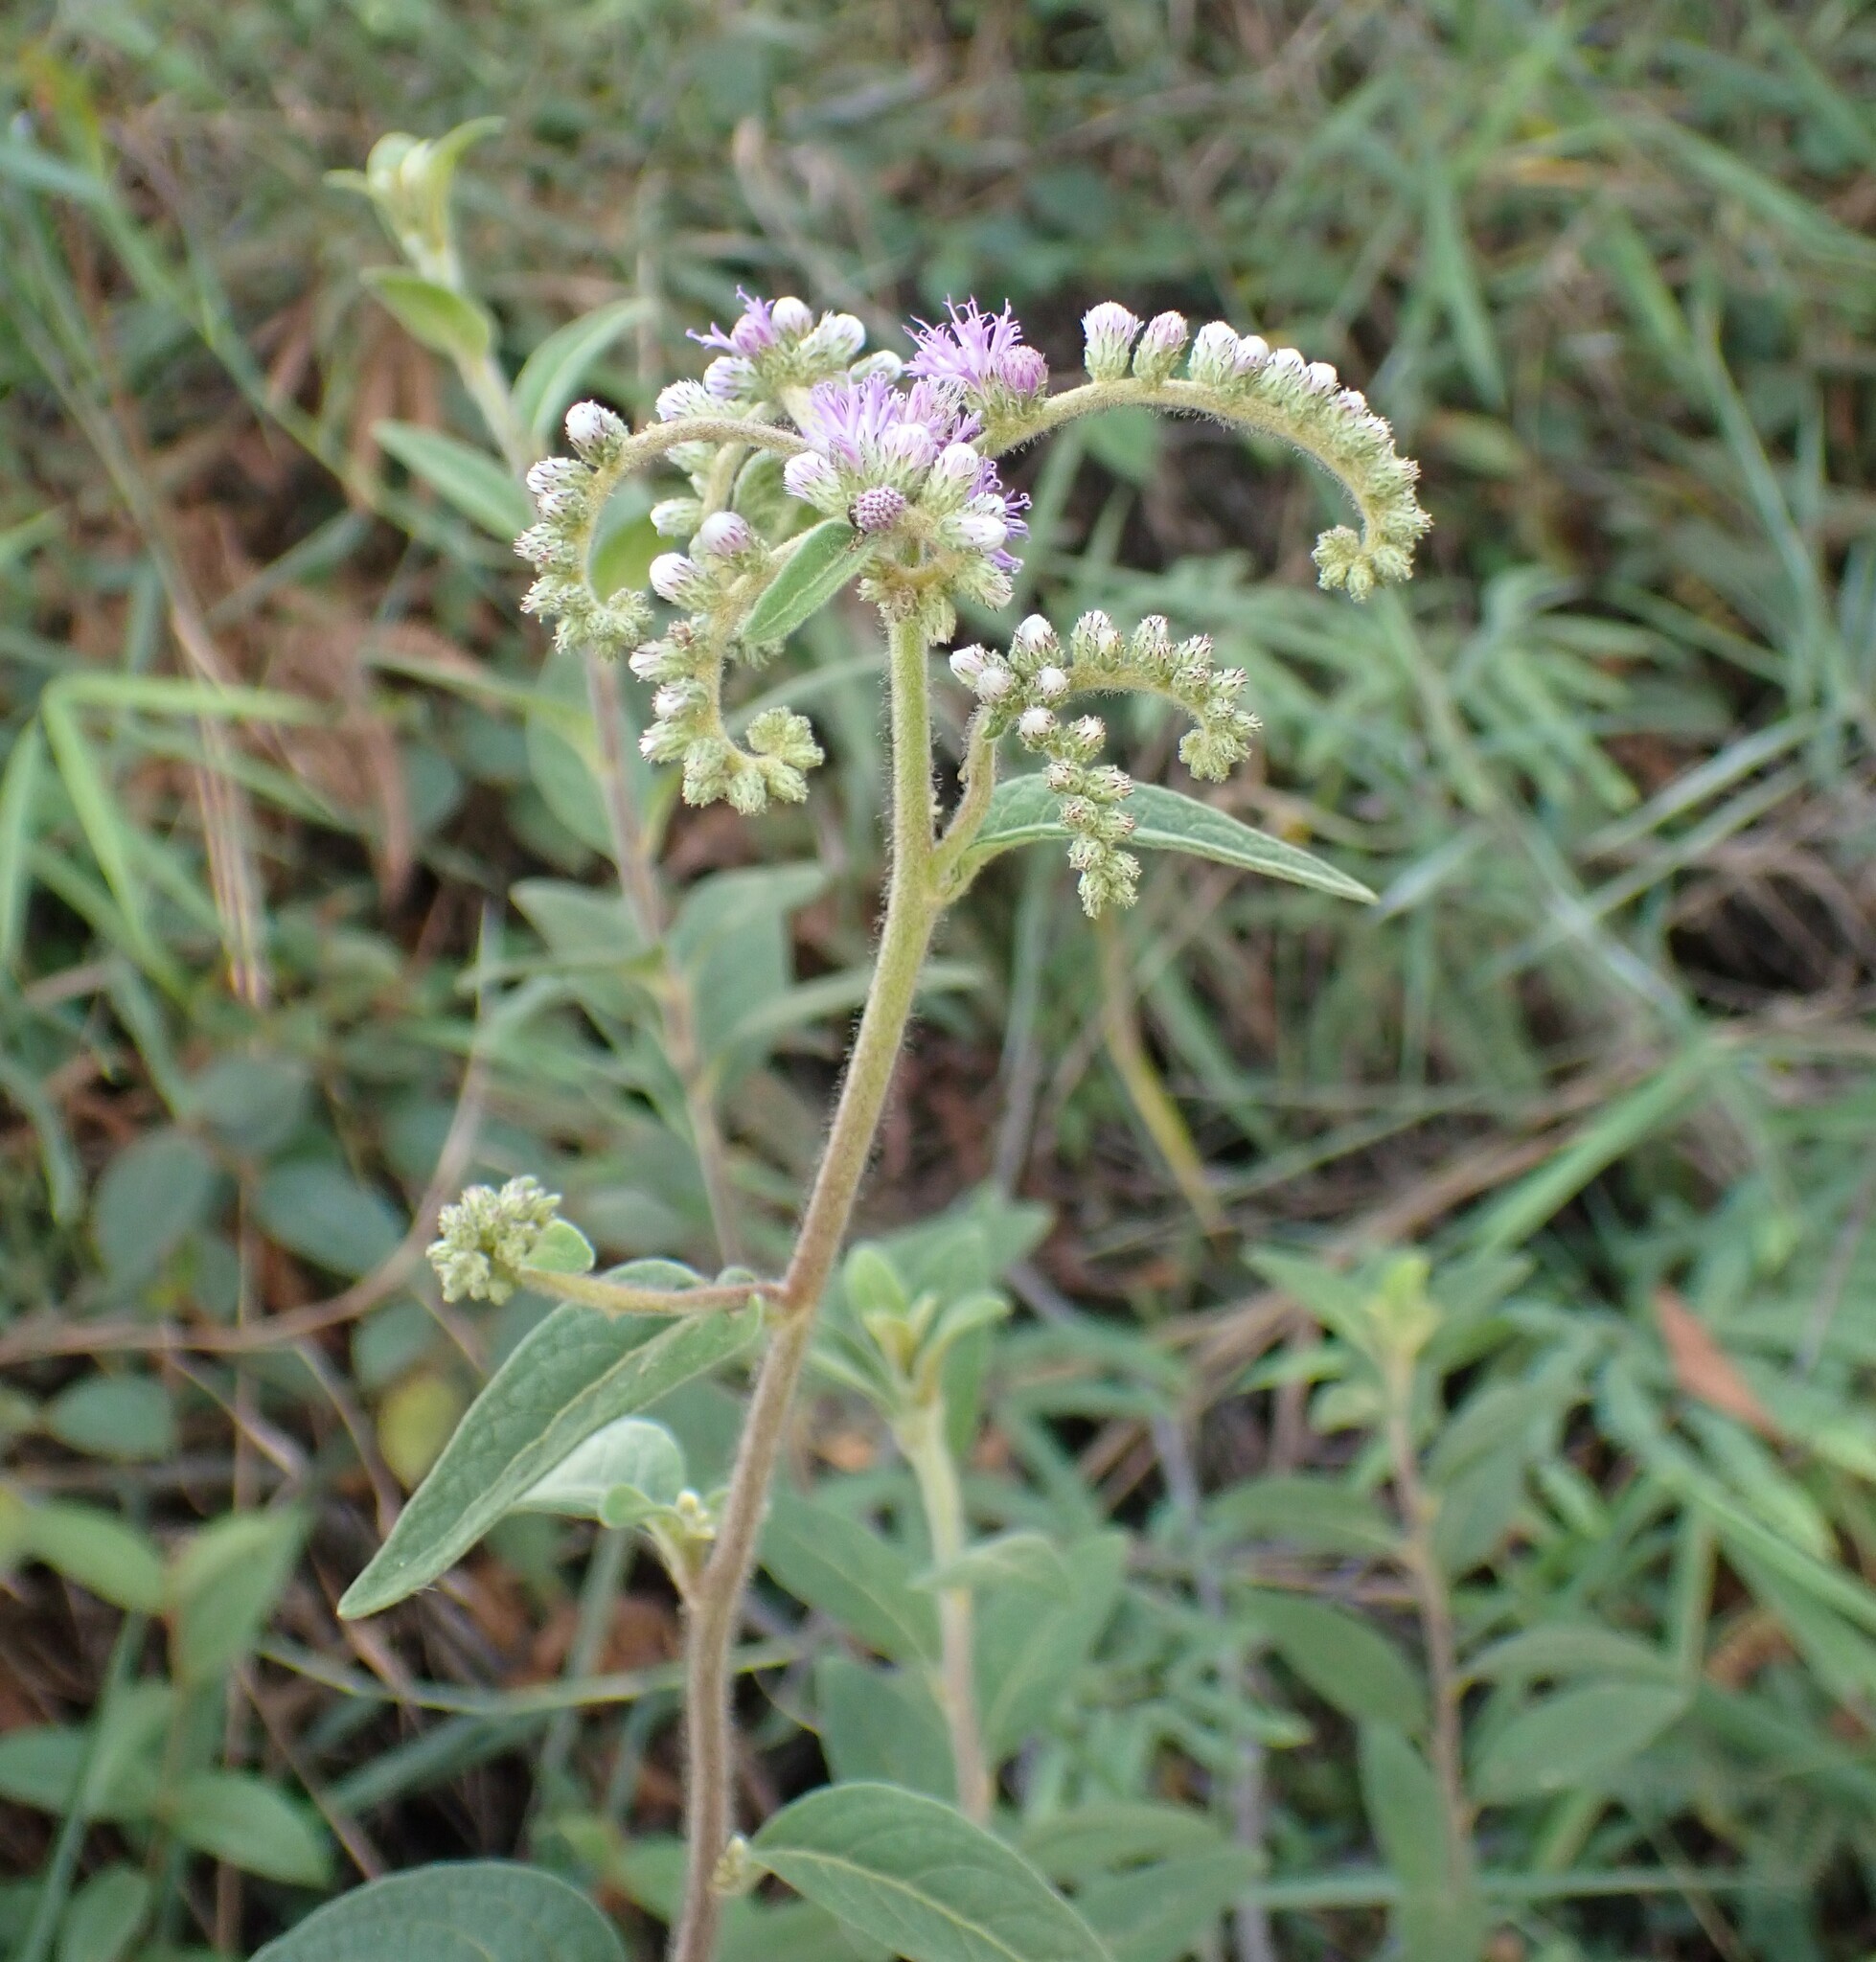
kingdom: Plantae
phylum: Tracheophyta
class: Magnoliopsida
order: Asterales
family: Asteraceae
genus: Cyrtocymura
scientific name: Cyrtocymura scorpioides
